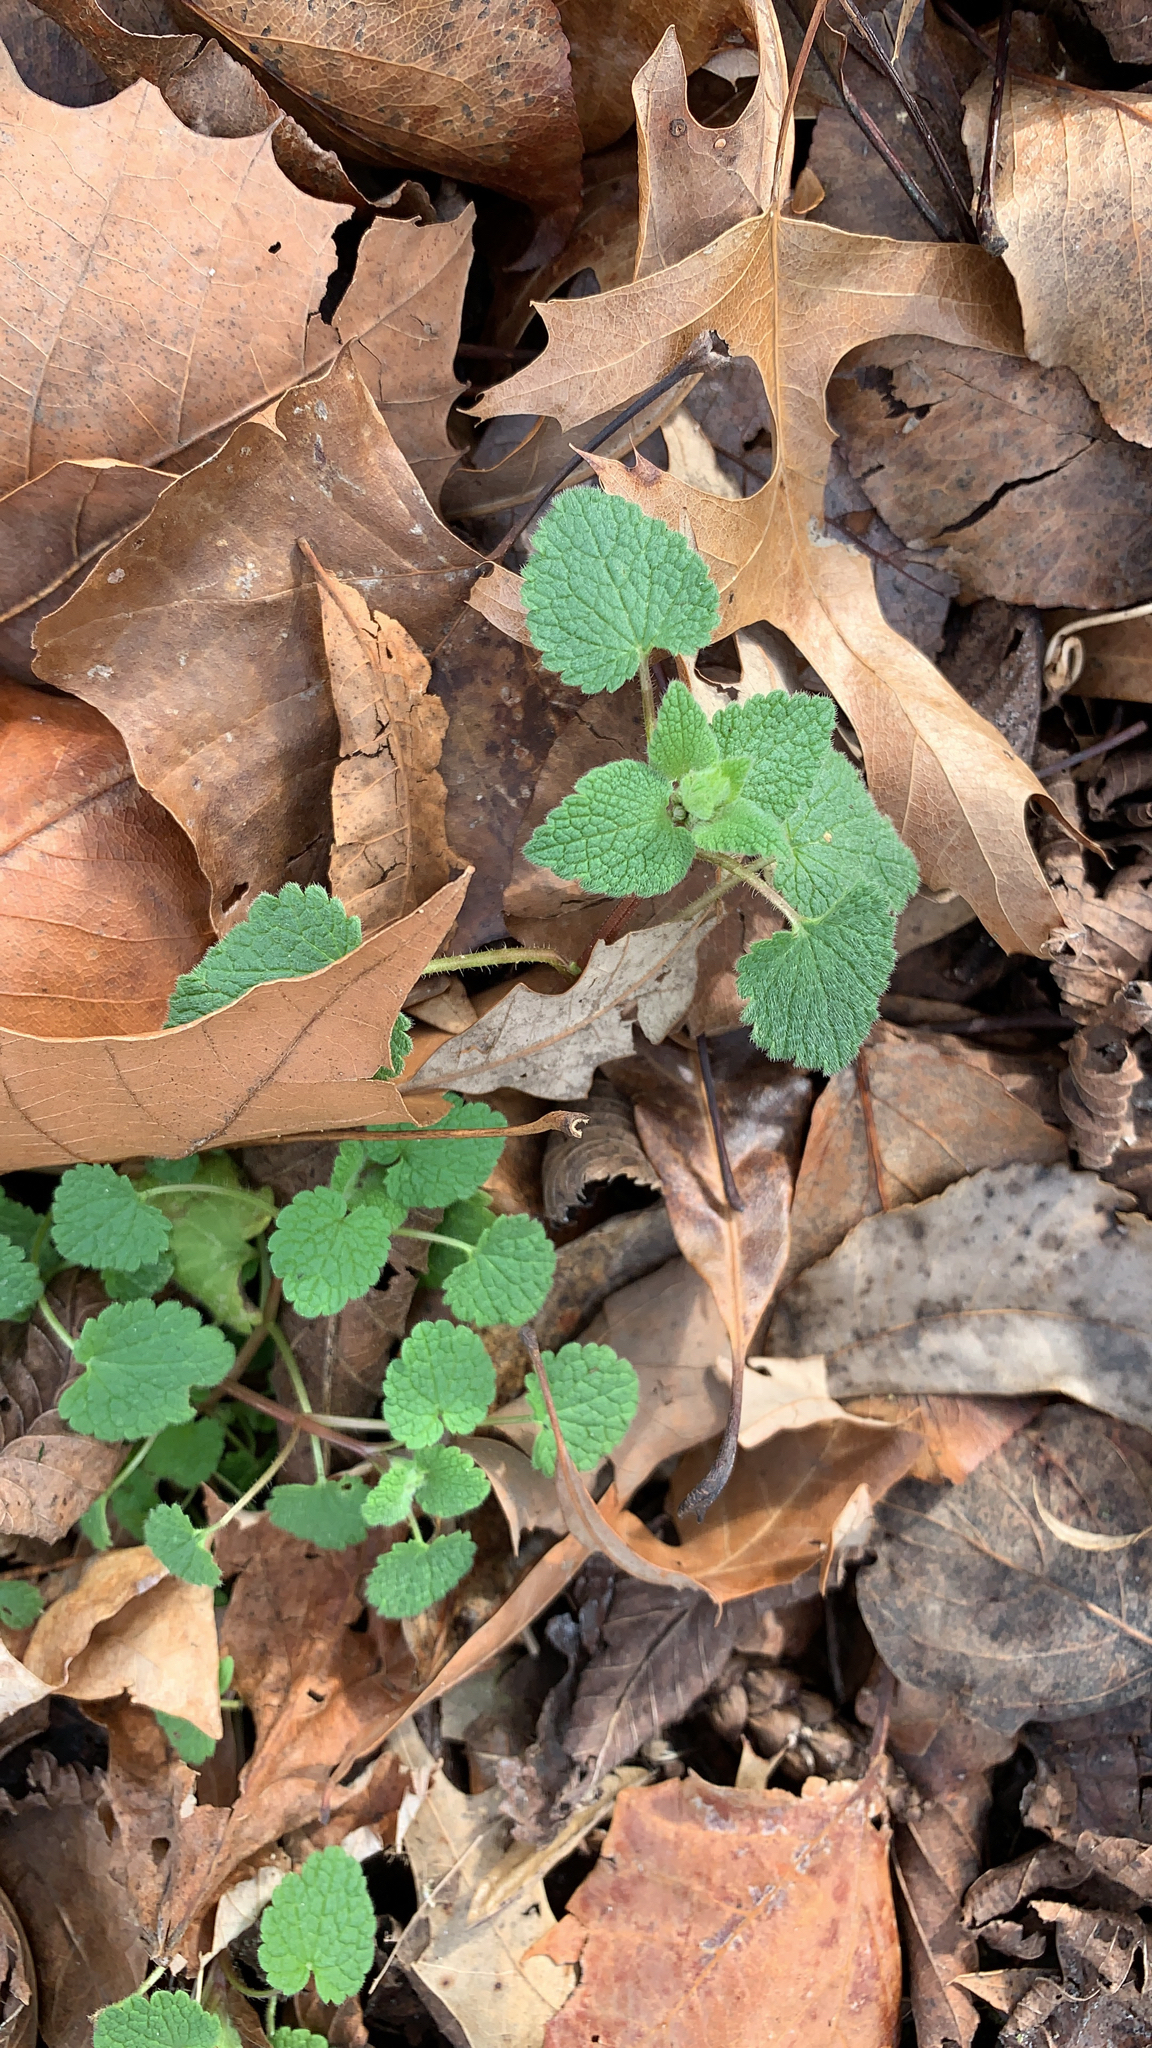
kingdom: Plantae
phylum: Tracheophyta
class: Magnoliopsida
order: Lamiales
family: Lamiaceae
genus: Lamium
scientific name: Lamium purpureum
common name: Red dead-nettle
